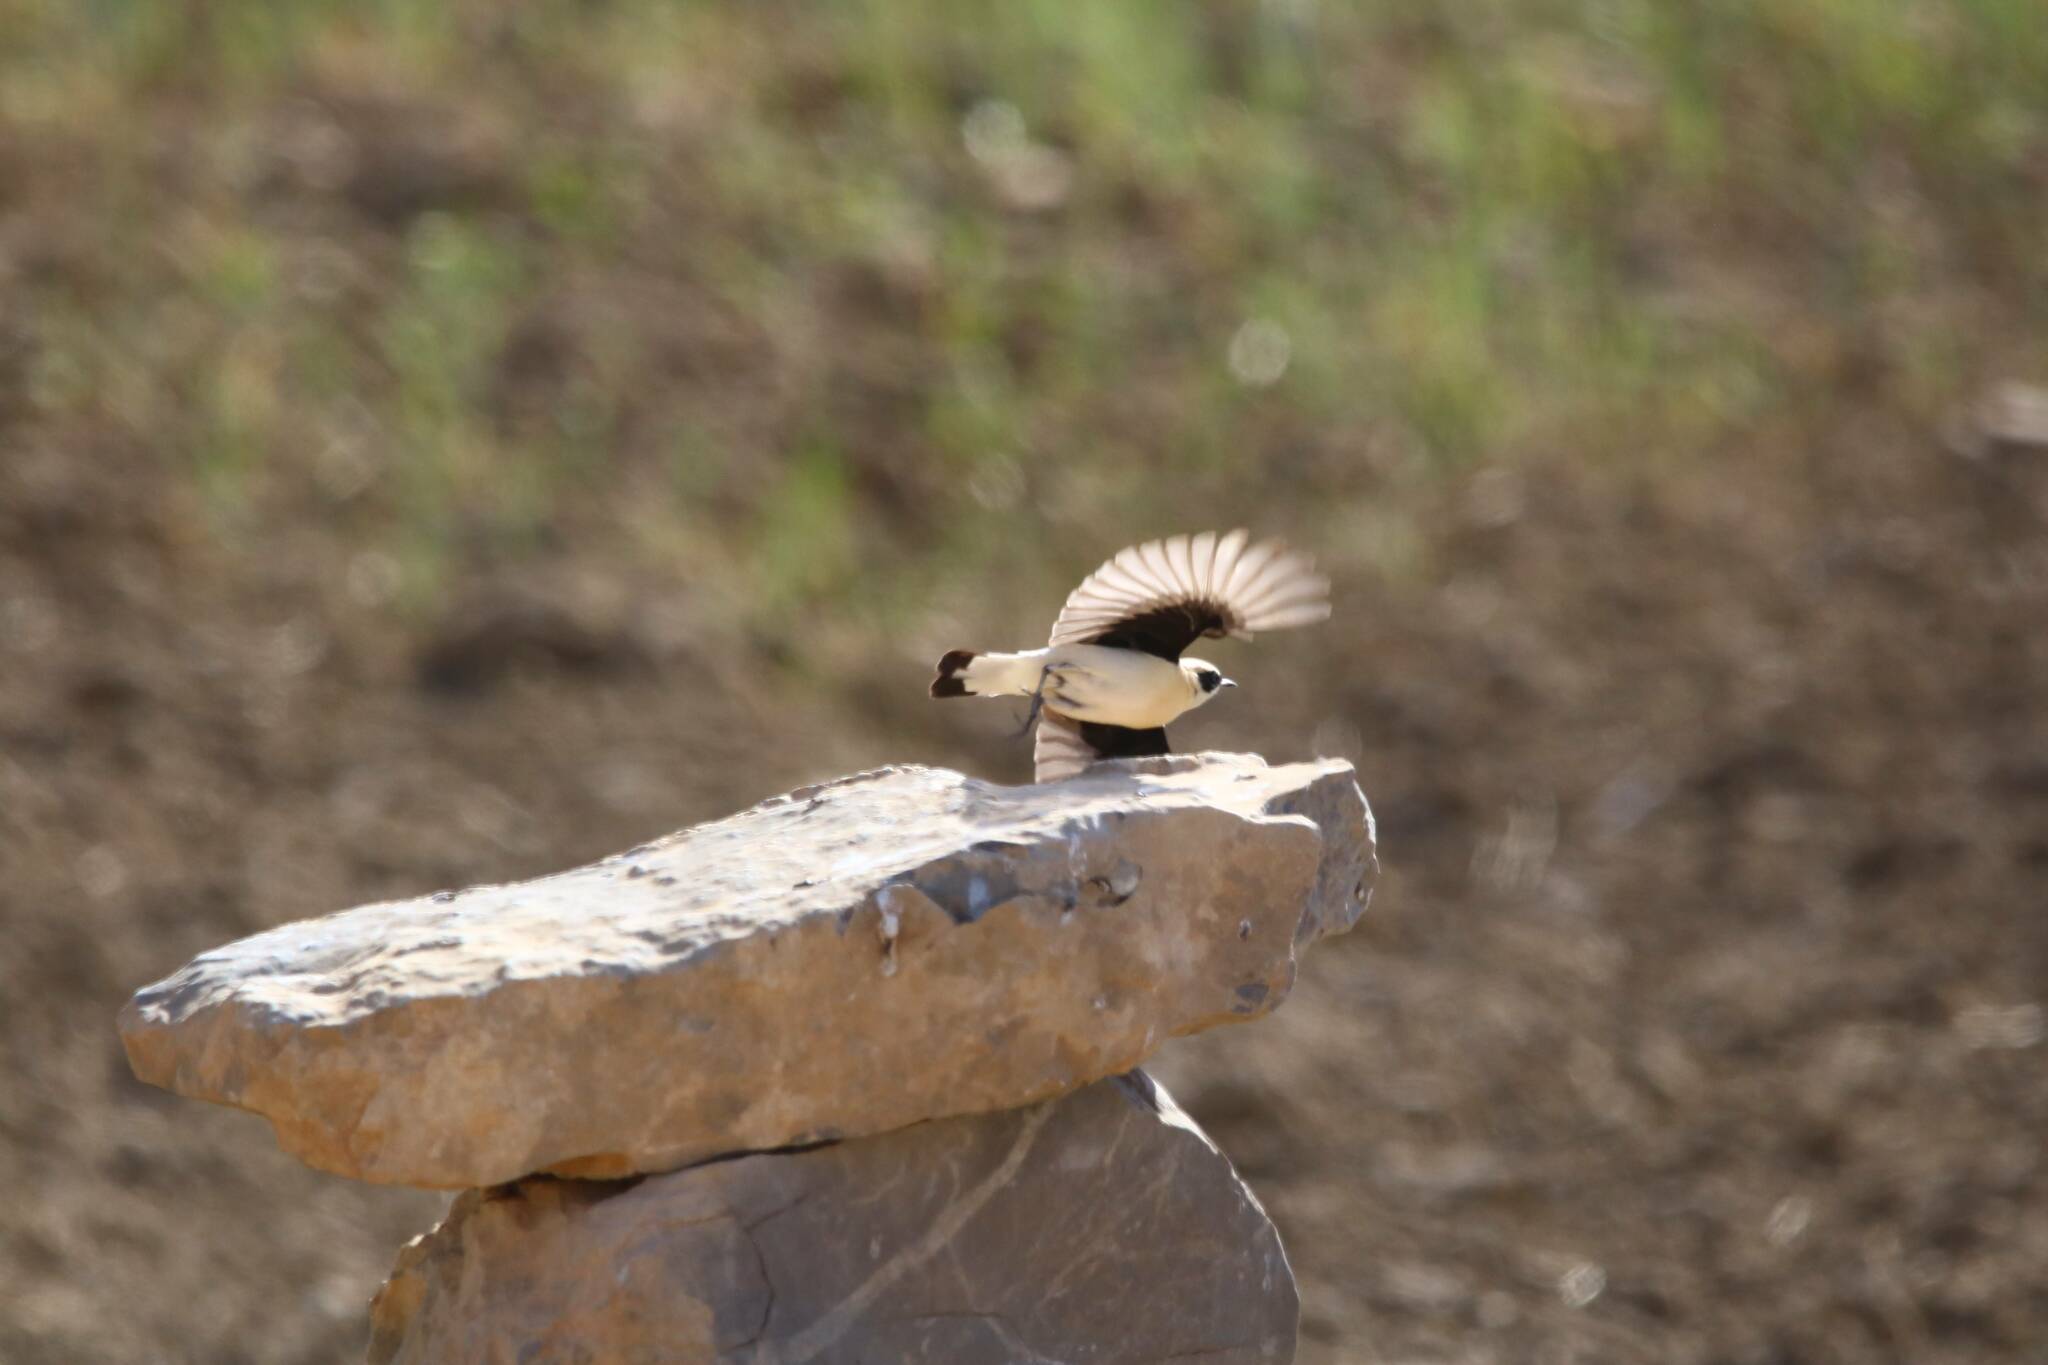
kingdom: Animalia
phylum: Chordata
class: Aves
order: Passeriformes
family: Muscicapidae
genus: Oenanthe
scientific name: Oenanthe hispanica
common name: Black-eared wheatear
